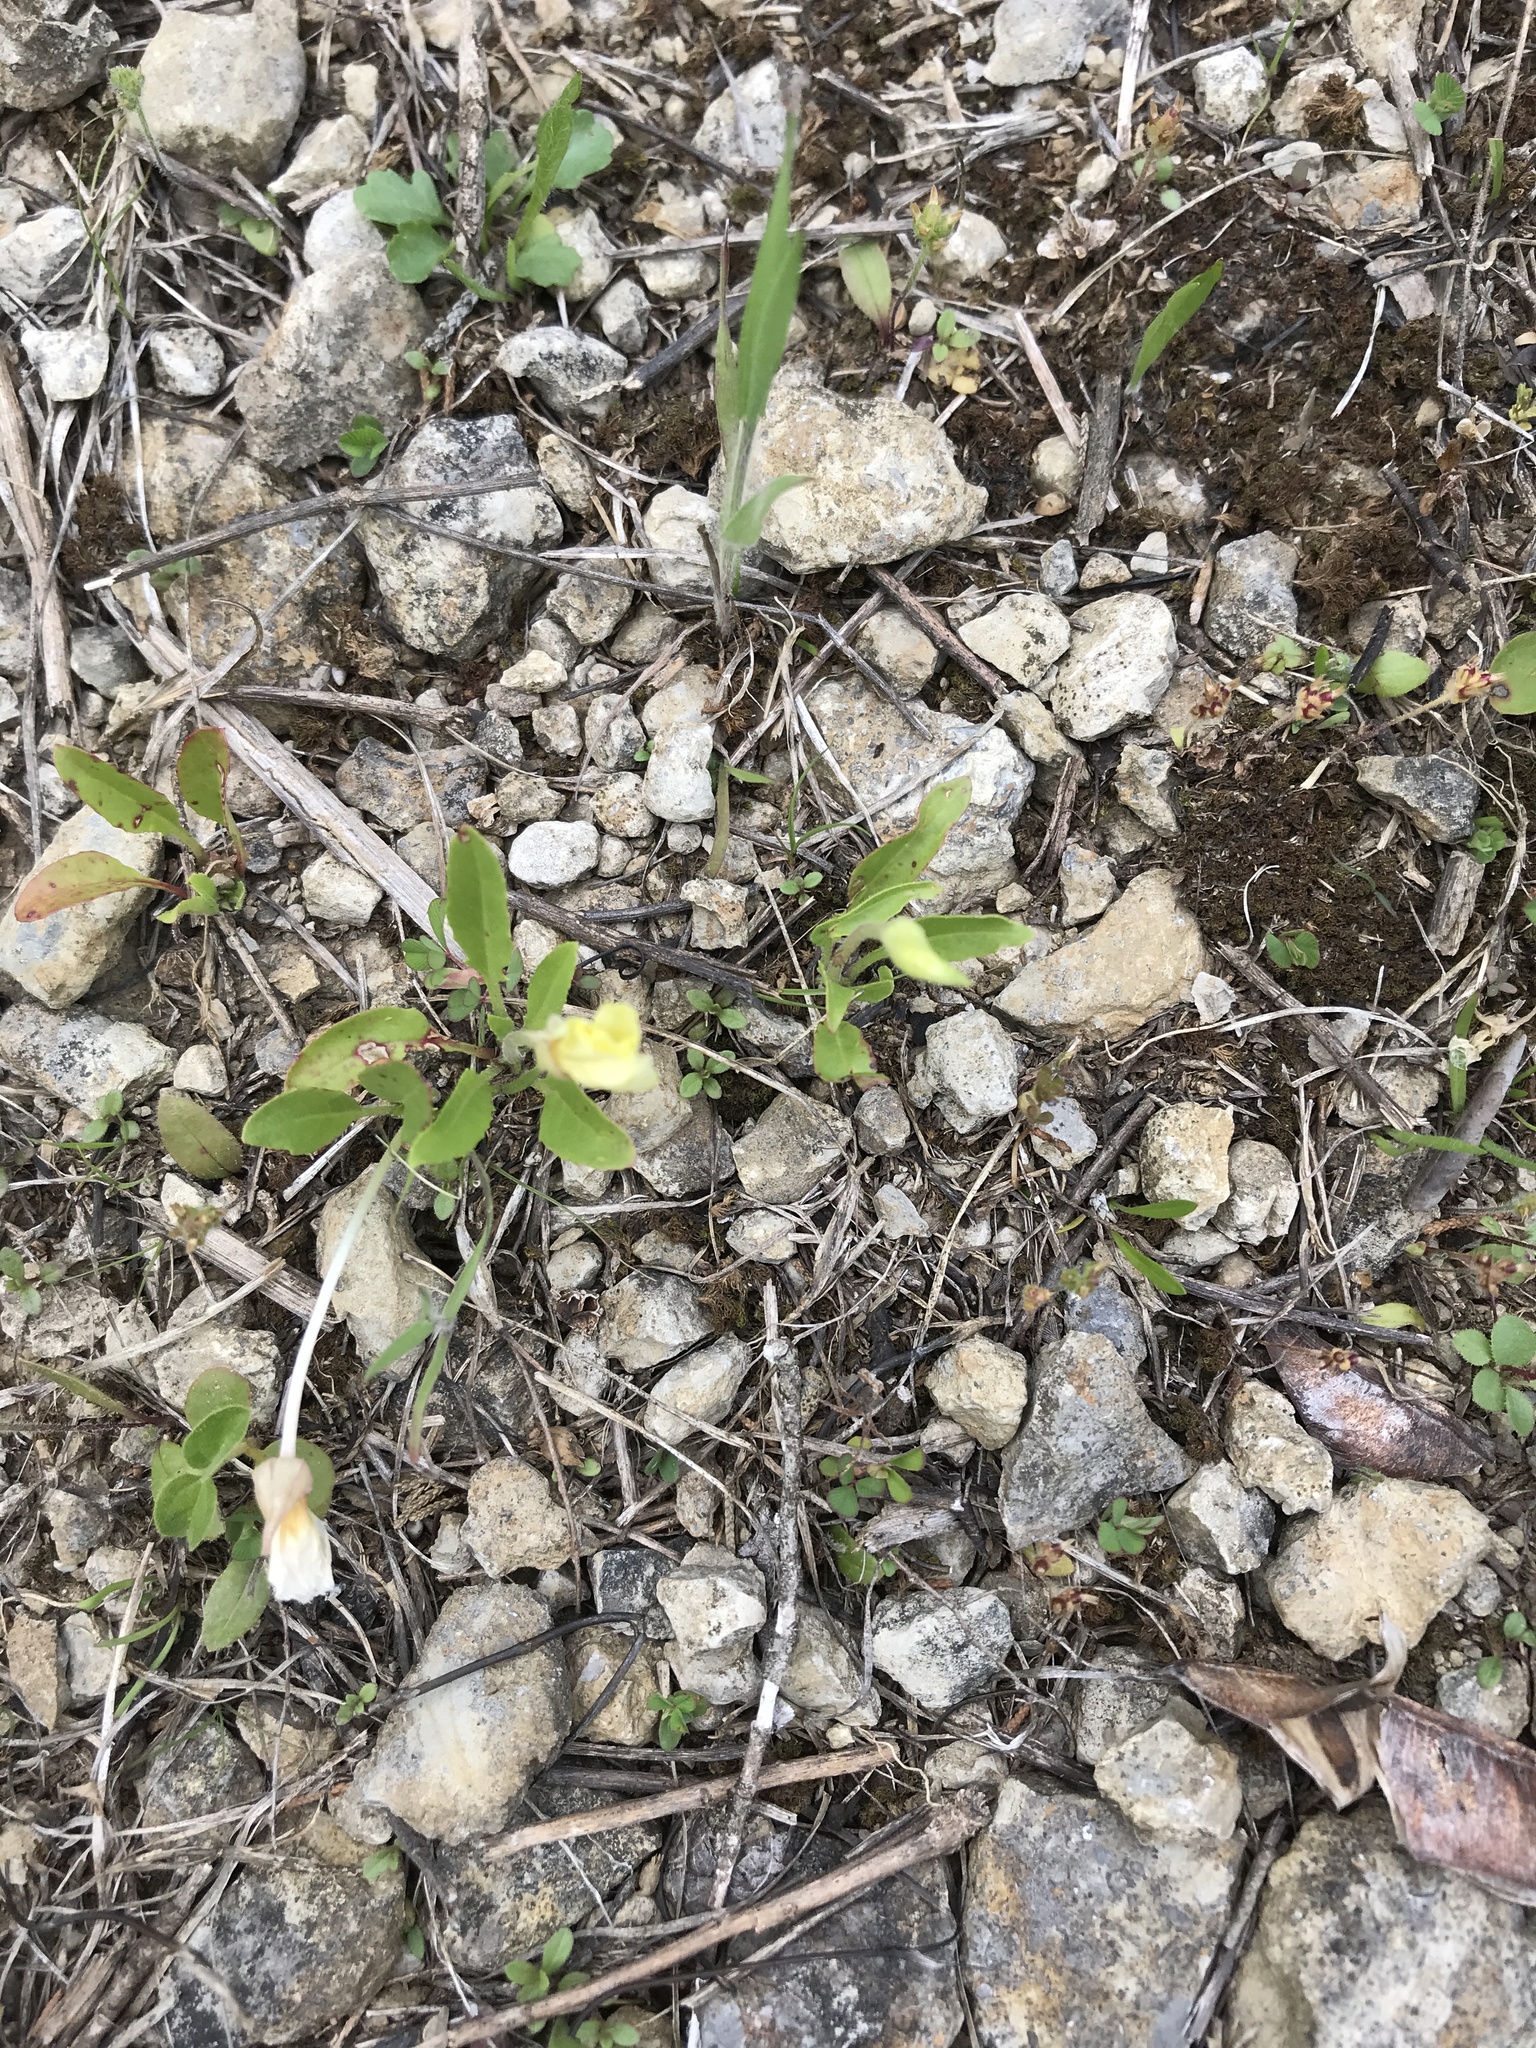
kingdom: Plantae
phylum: Tracheophyta
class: Magnoliopsida
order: Myrtales
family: Onagraceae
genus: Oenothera
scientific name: Oenothera triloba
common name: Sessile evening-primrose
